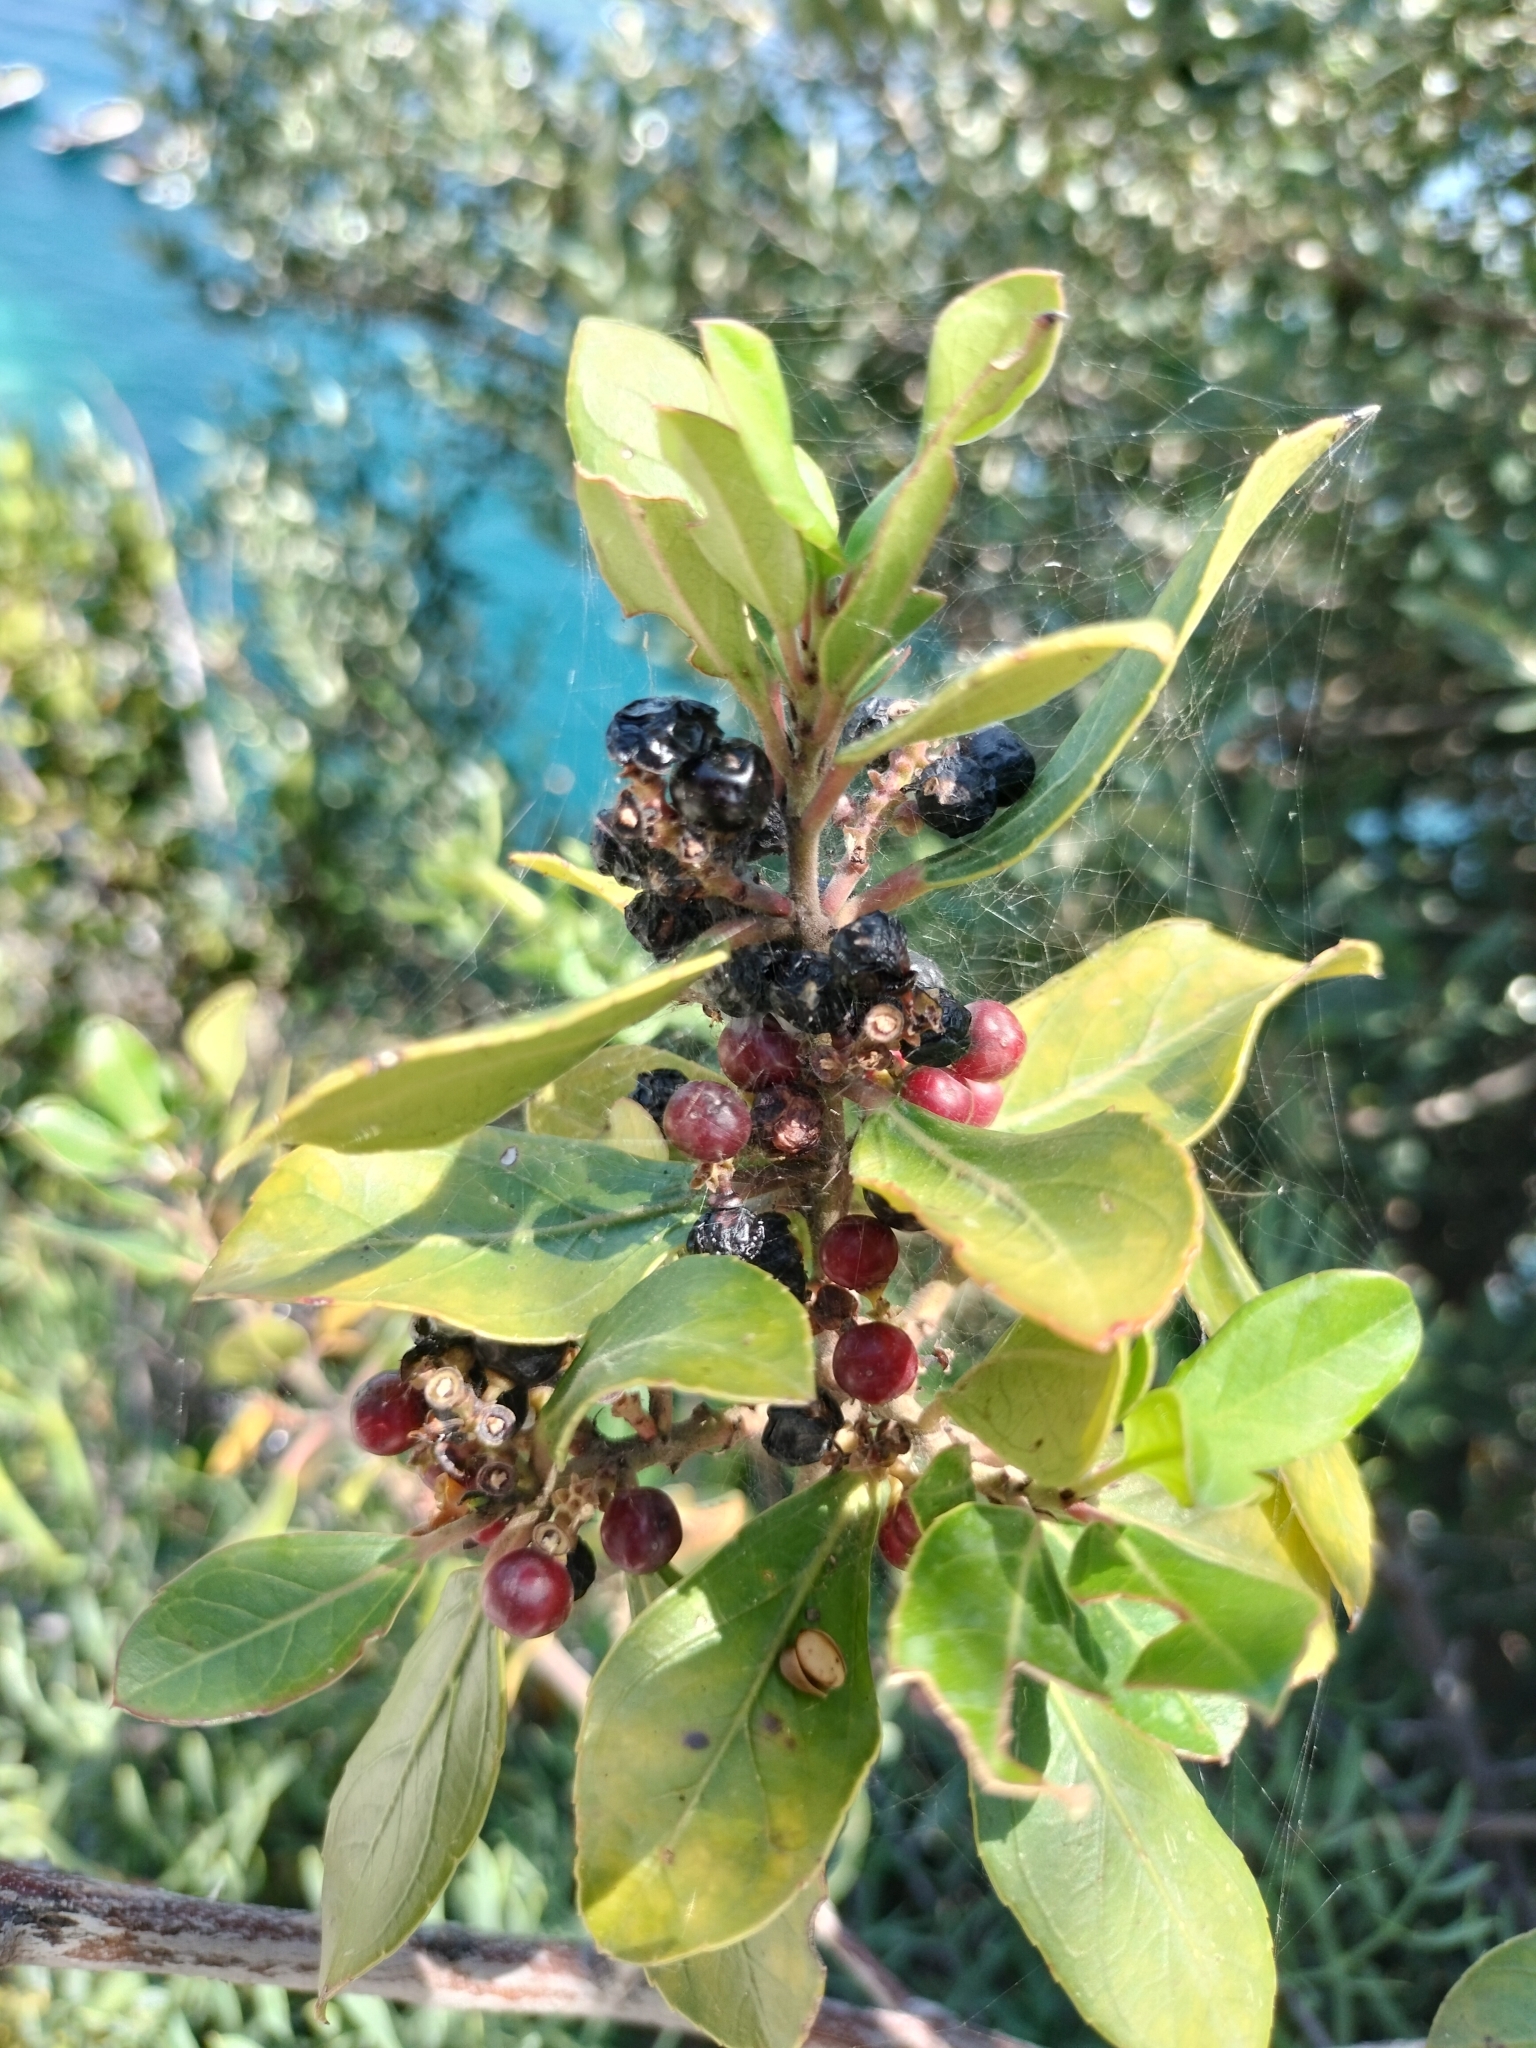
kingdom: Plantae
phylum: Tracheophyta
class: Magnoliopsida
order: Rosales
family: Rhamnaceae
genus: Rhamnus
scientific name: Rhamnus alaternus
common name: Mediterranean buckthorn
